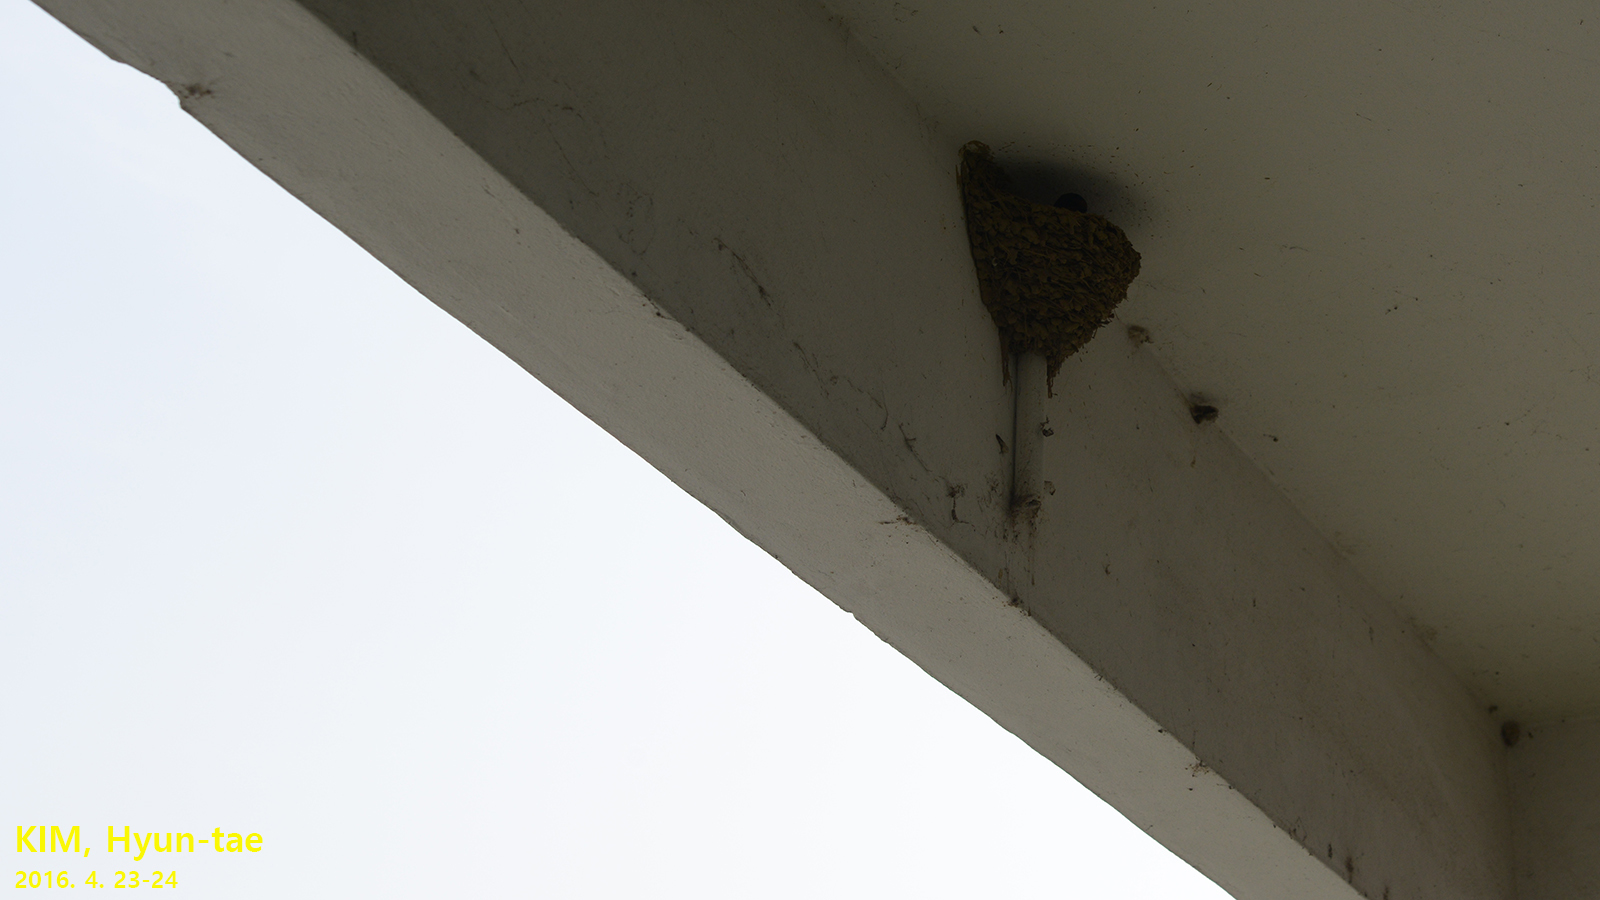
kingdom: Animalia
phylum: Chordata
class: Aves
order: Passeriformes
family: Hirundinidae
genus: Hirundo
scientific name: Hirundo rustica
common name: Barn swallow
